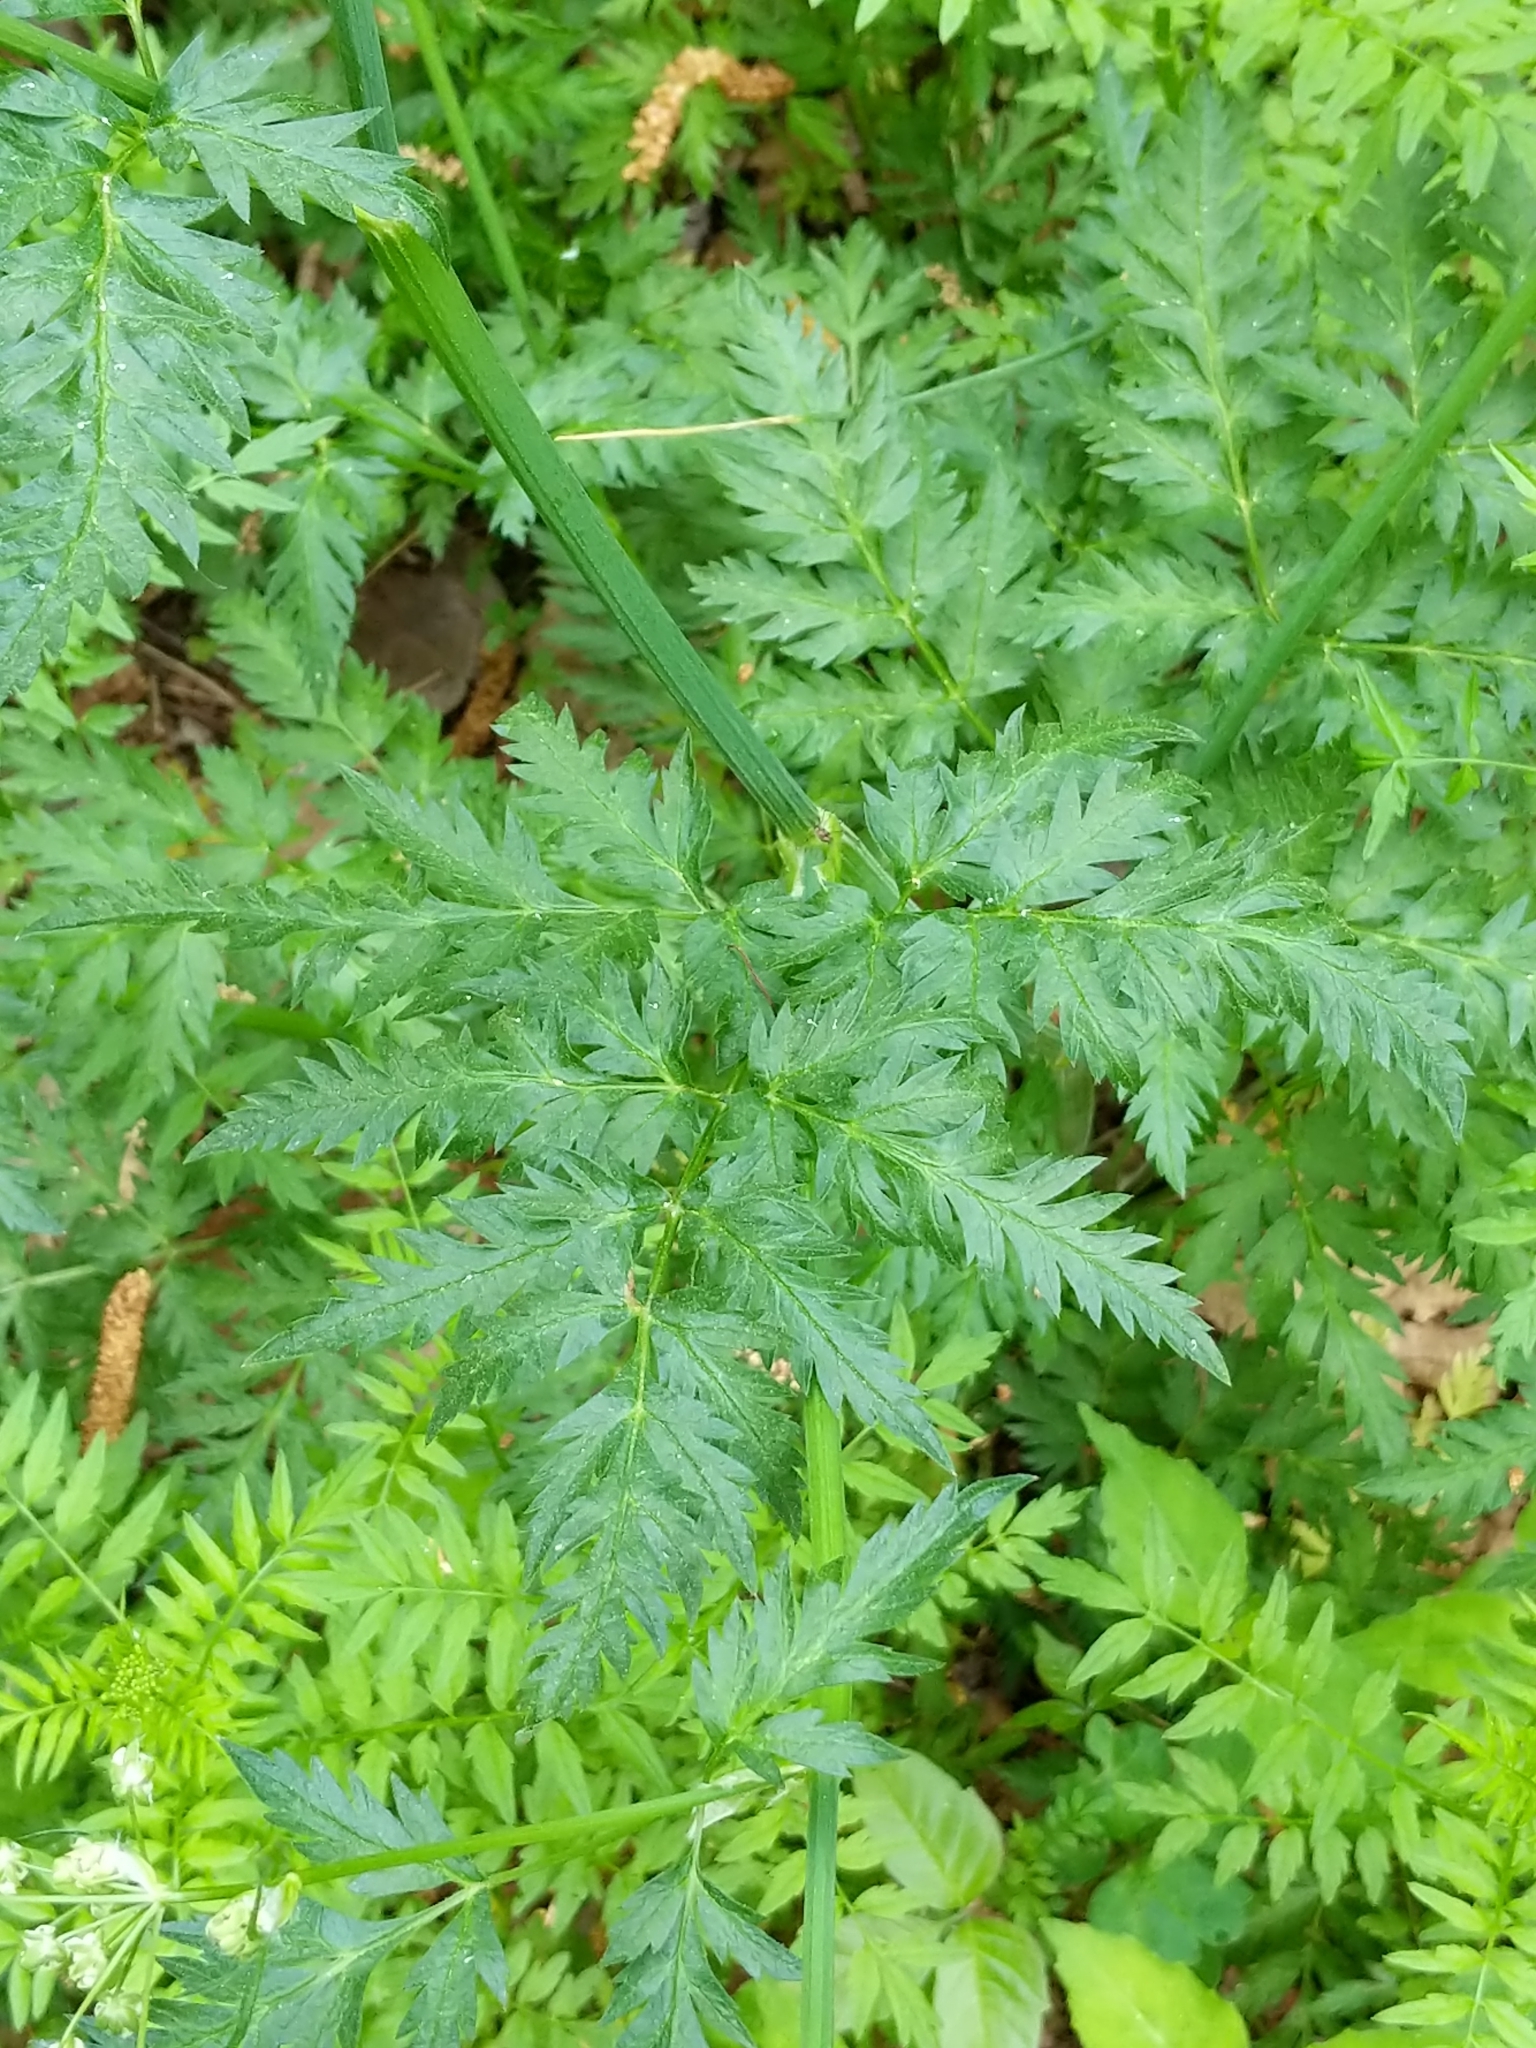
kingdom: Plantae
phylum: Tracheophyta
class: Magnoliopsida
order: Apiales
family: Apiaceae
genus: Anthriscus
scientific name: Anthriscus sylvestris
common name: Cow parsley
